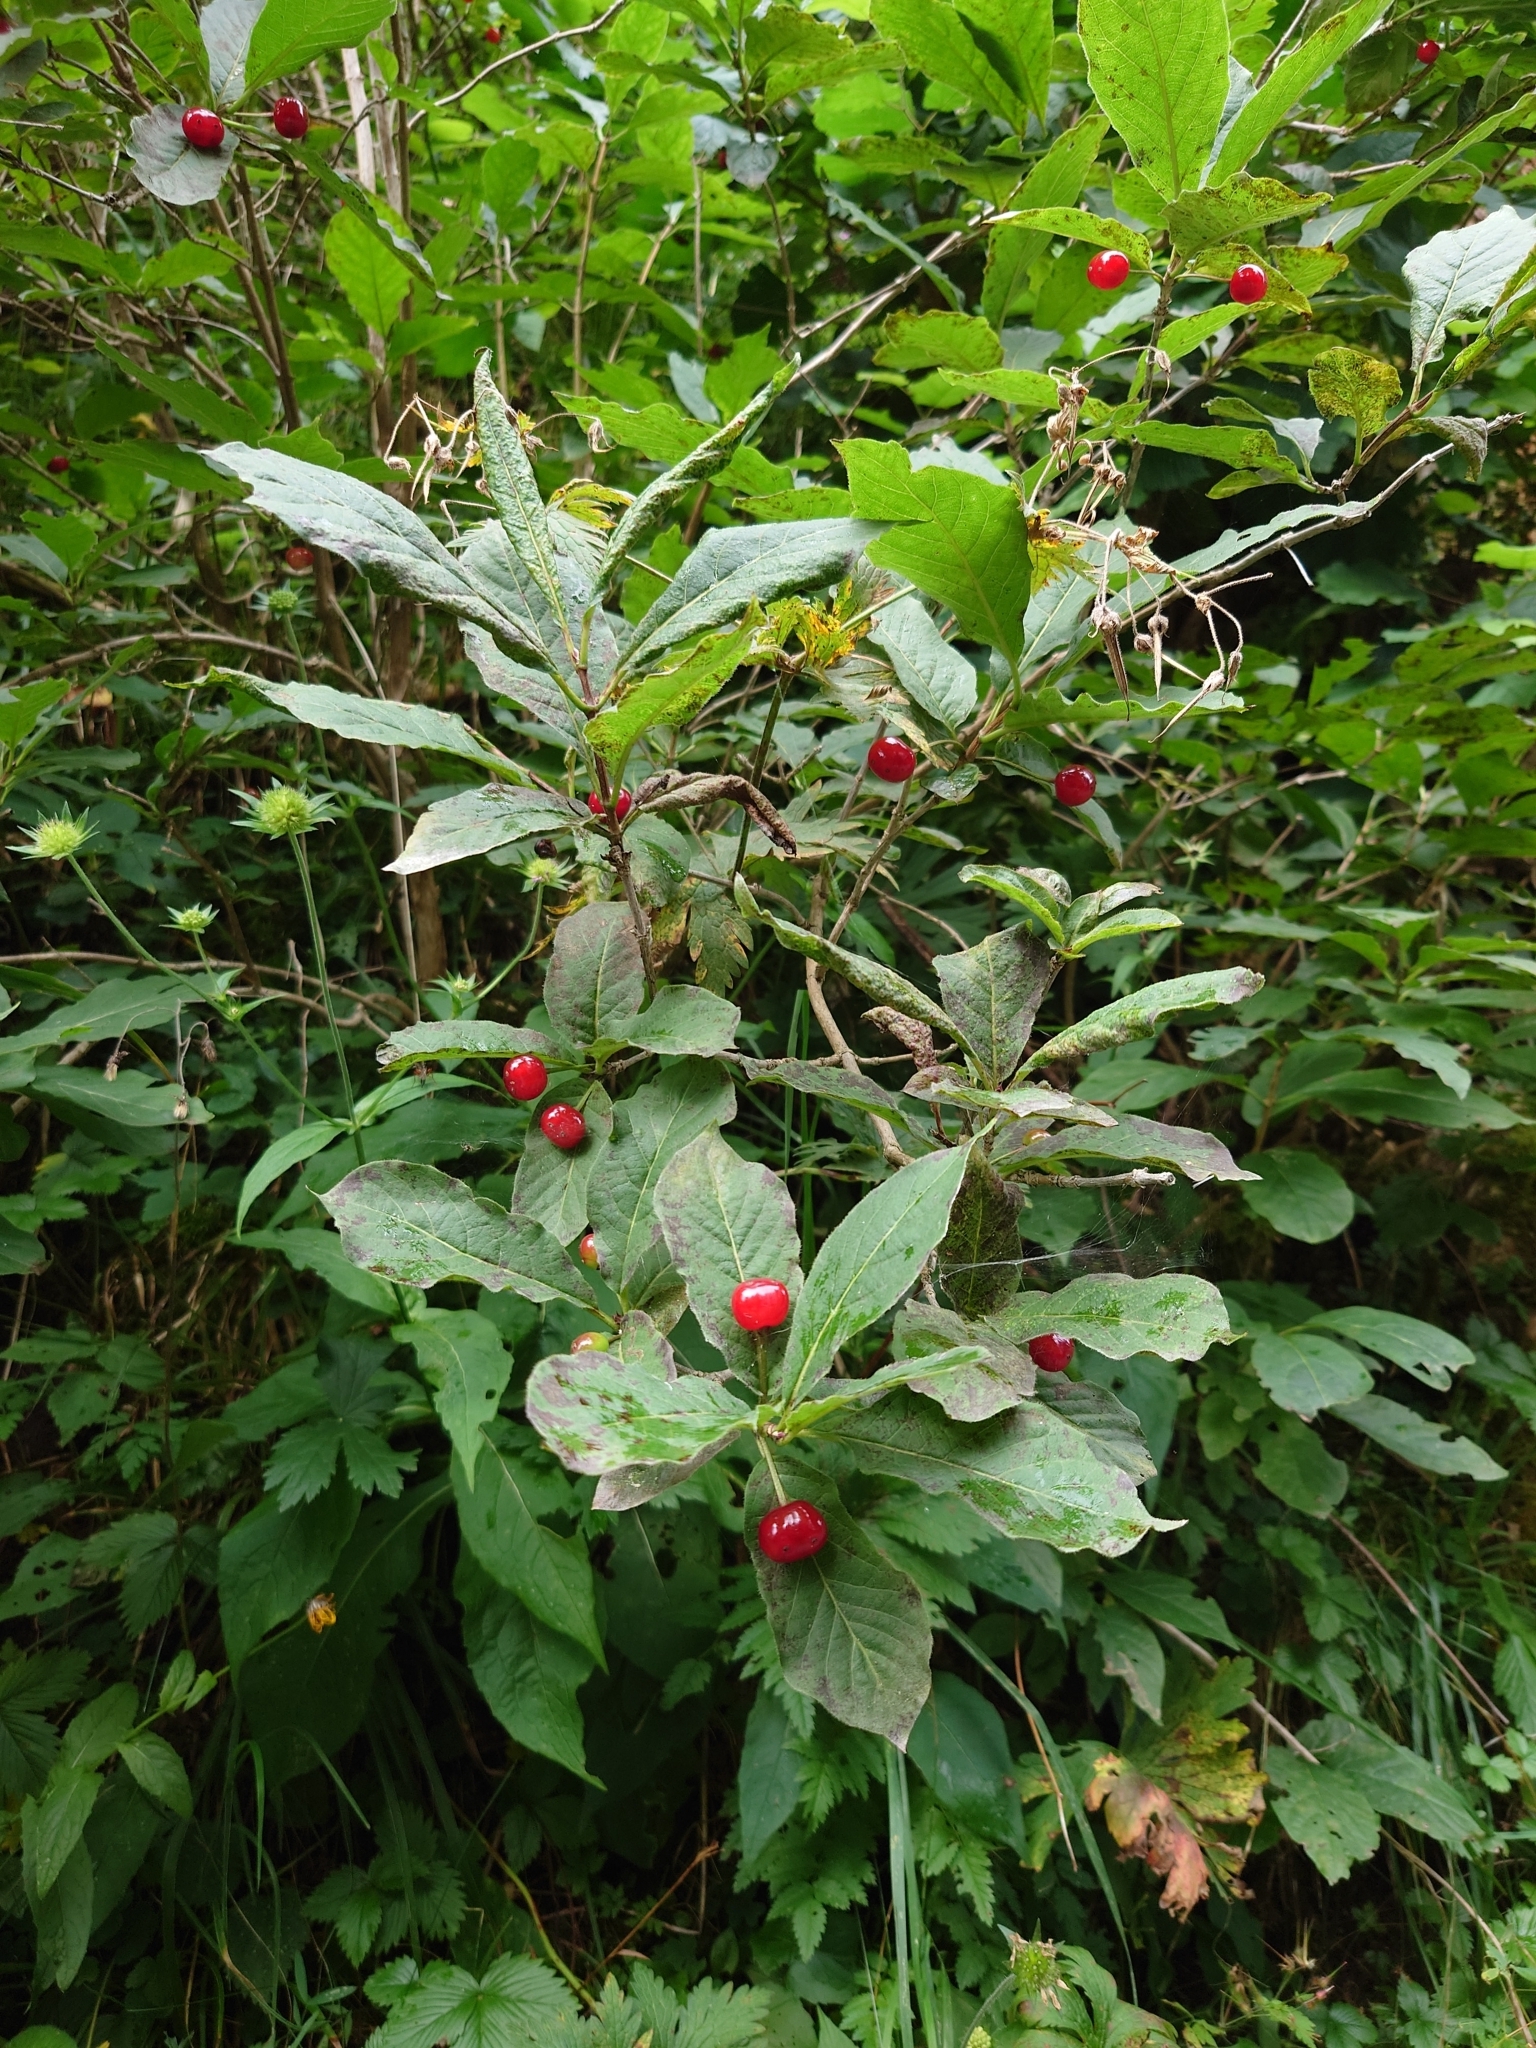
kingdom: Plantae
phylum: Tracheophyta
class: Magnoliopsida
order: Dipsacales
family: Caprifoliaceae
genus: Lonicera
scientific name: Lonicera alpigena
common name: Alpine honeysuckle
